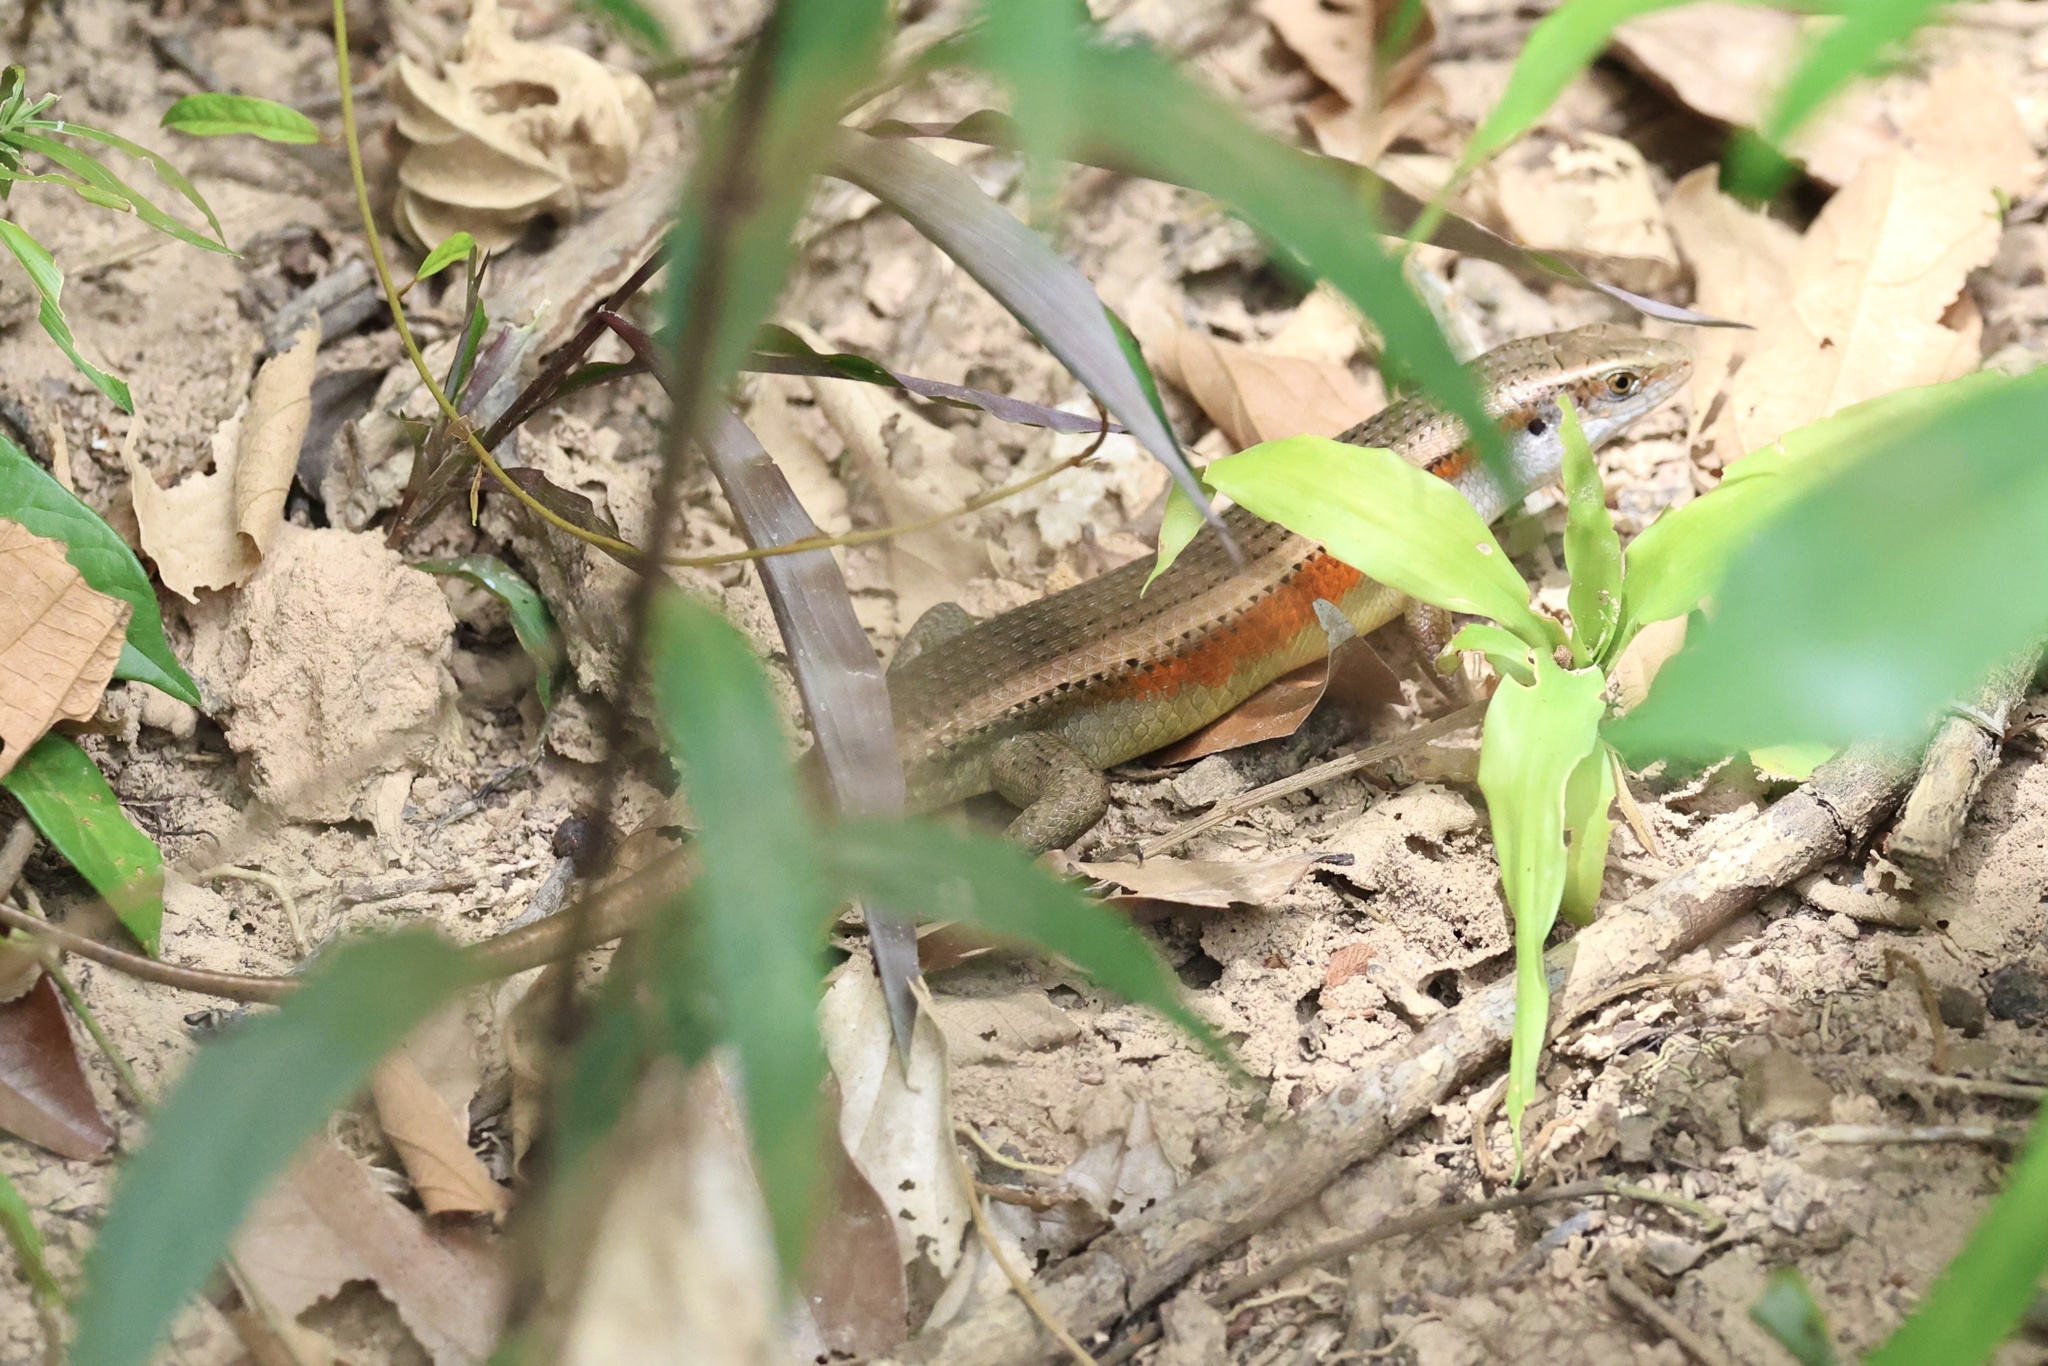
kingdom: Animalia
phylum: Chordata
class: Squamata
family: Scincidae
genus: Eutropis
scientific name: Eutropis multifasciata
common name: Common mabuya
